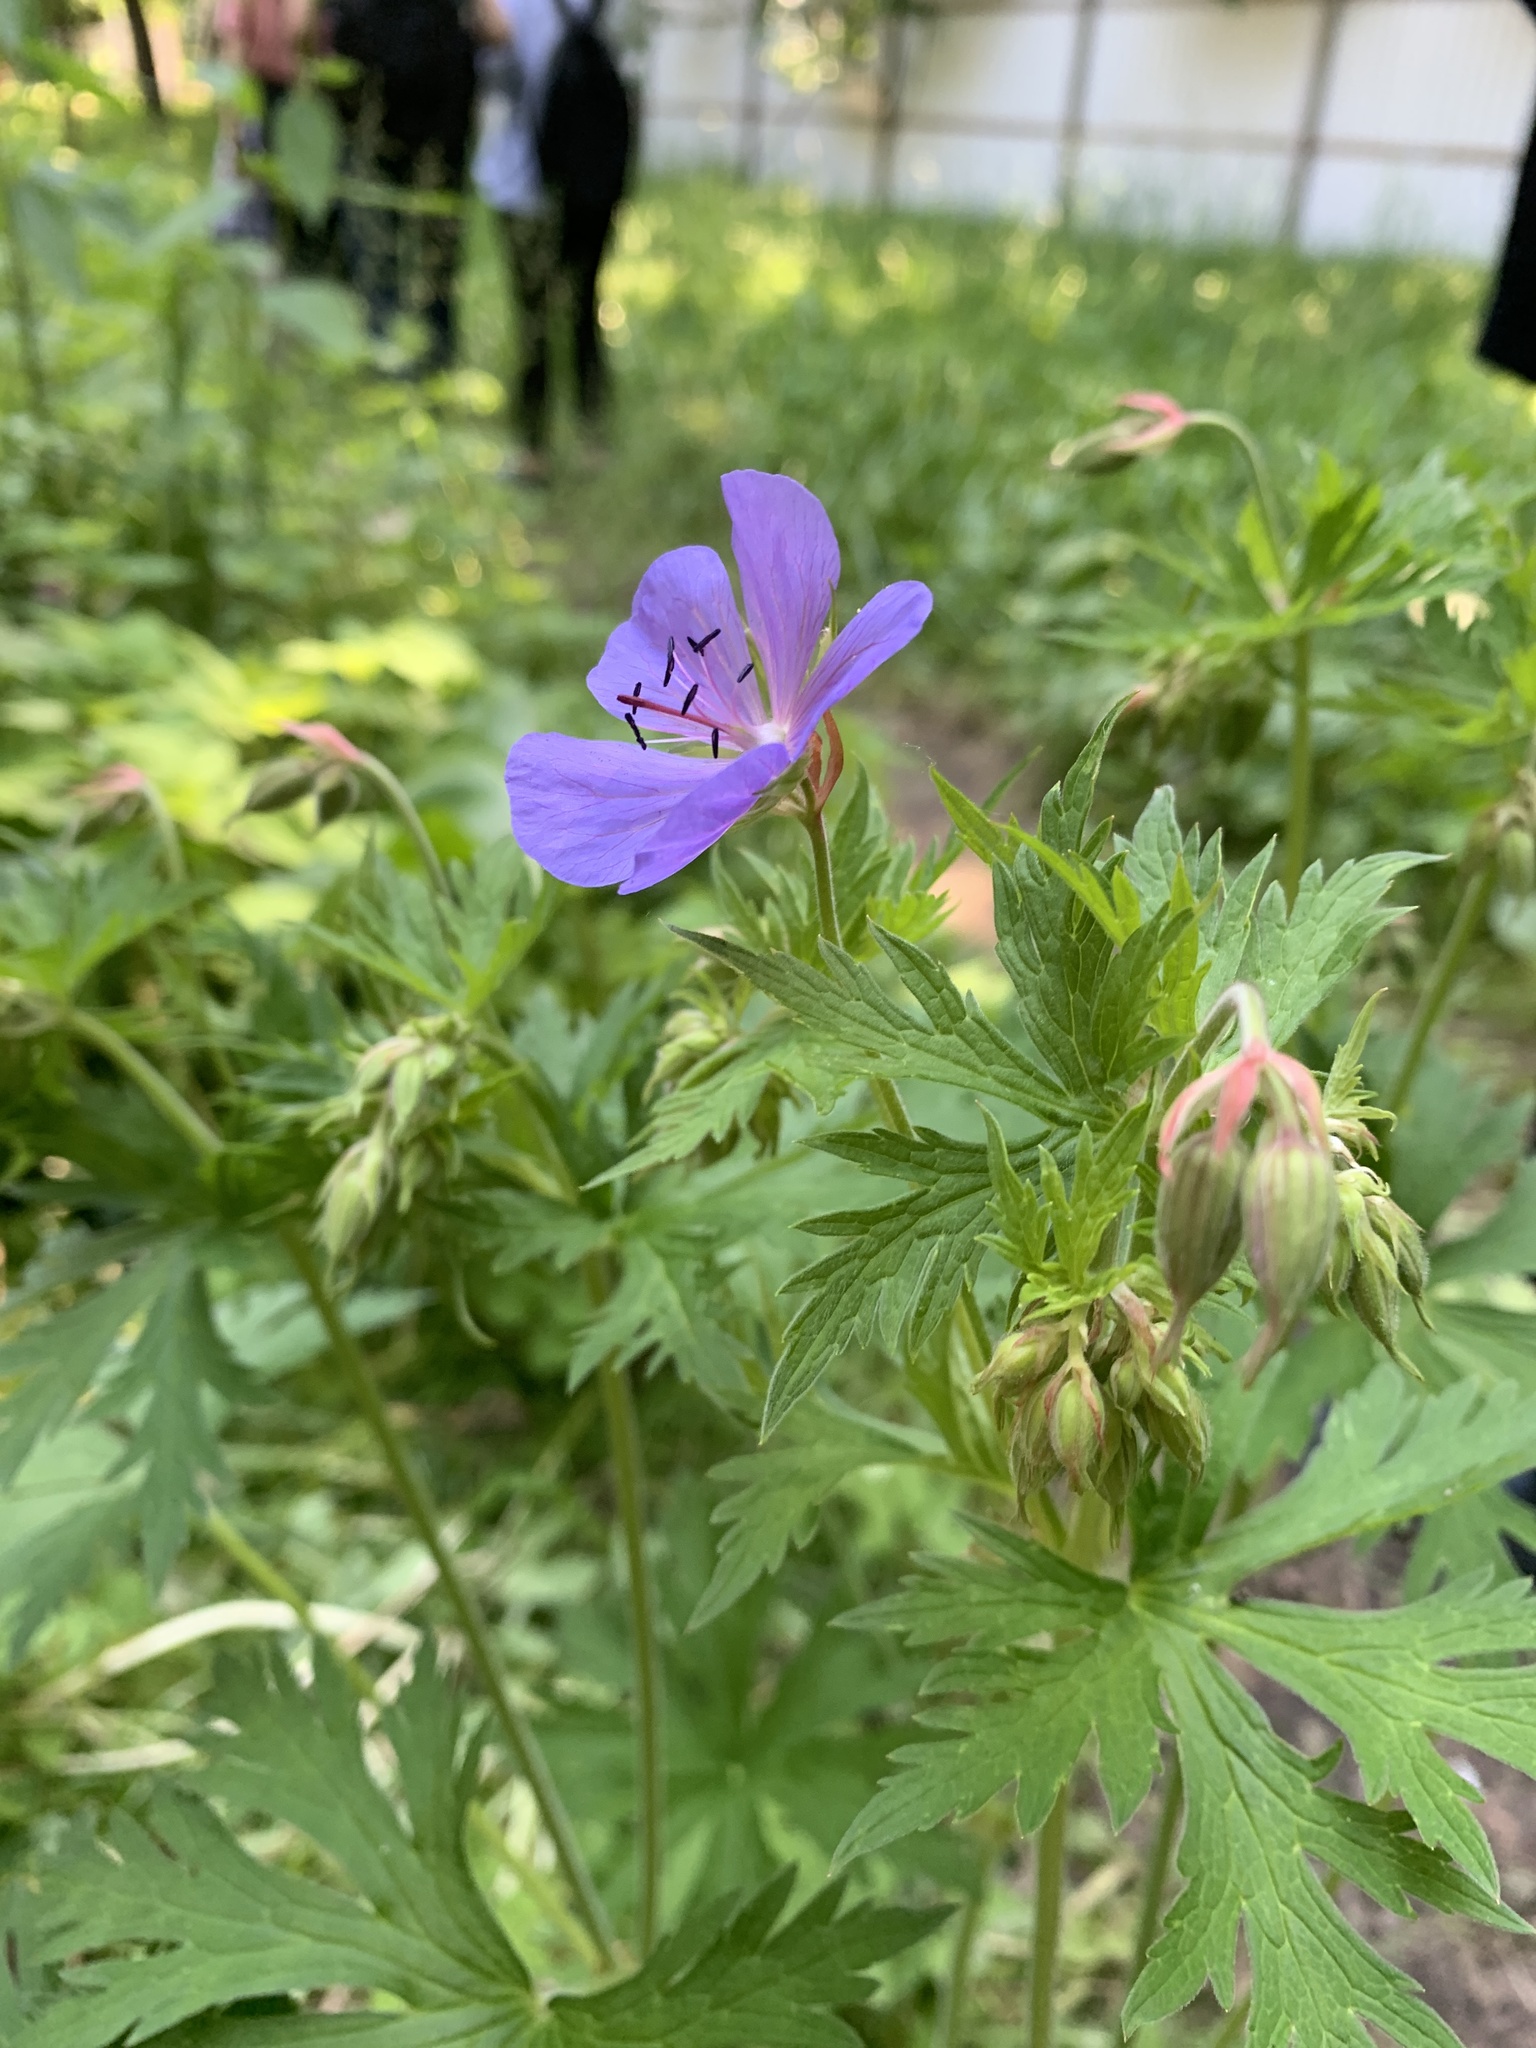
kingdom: Plantae
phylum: Tracheophyta
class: Magnoliopsida
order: Geraniales
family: Geraniaceae
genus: Geranium
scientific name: Geranium pratense
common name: Meadow crane's-bill
